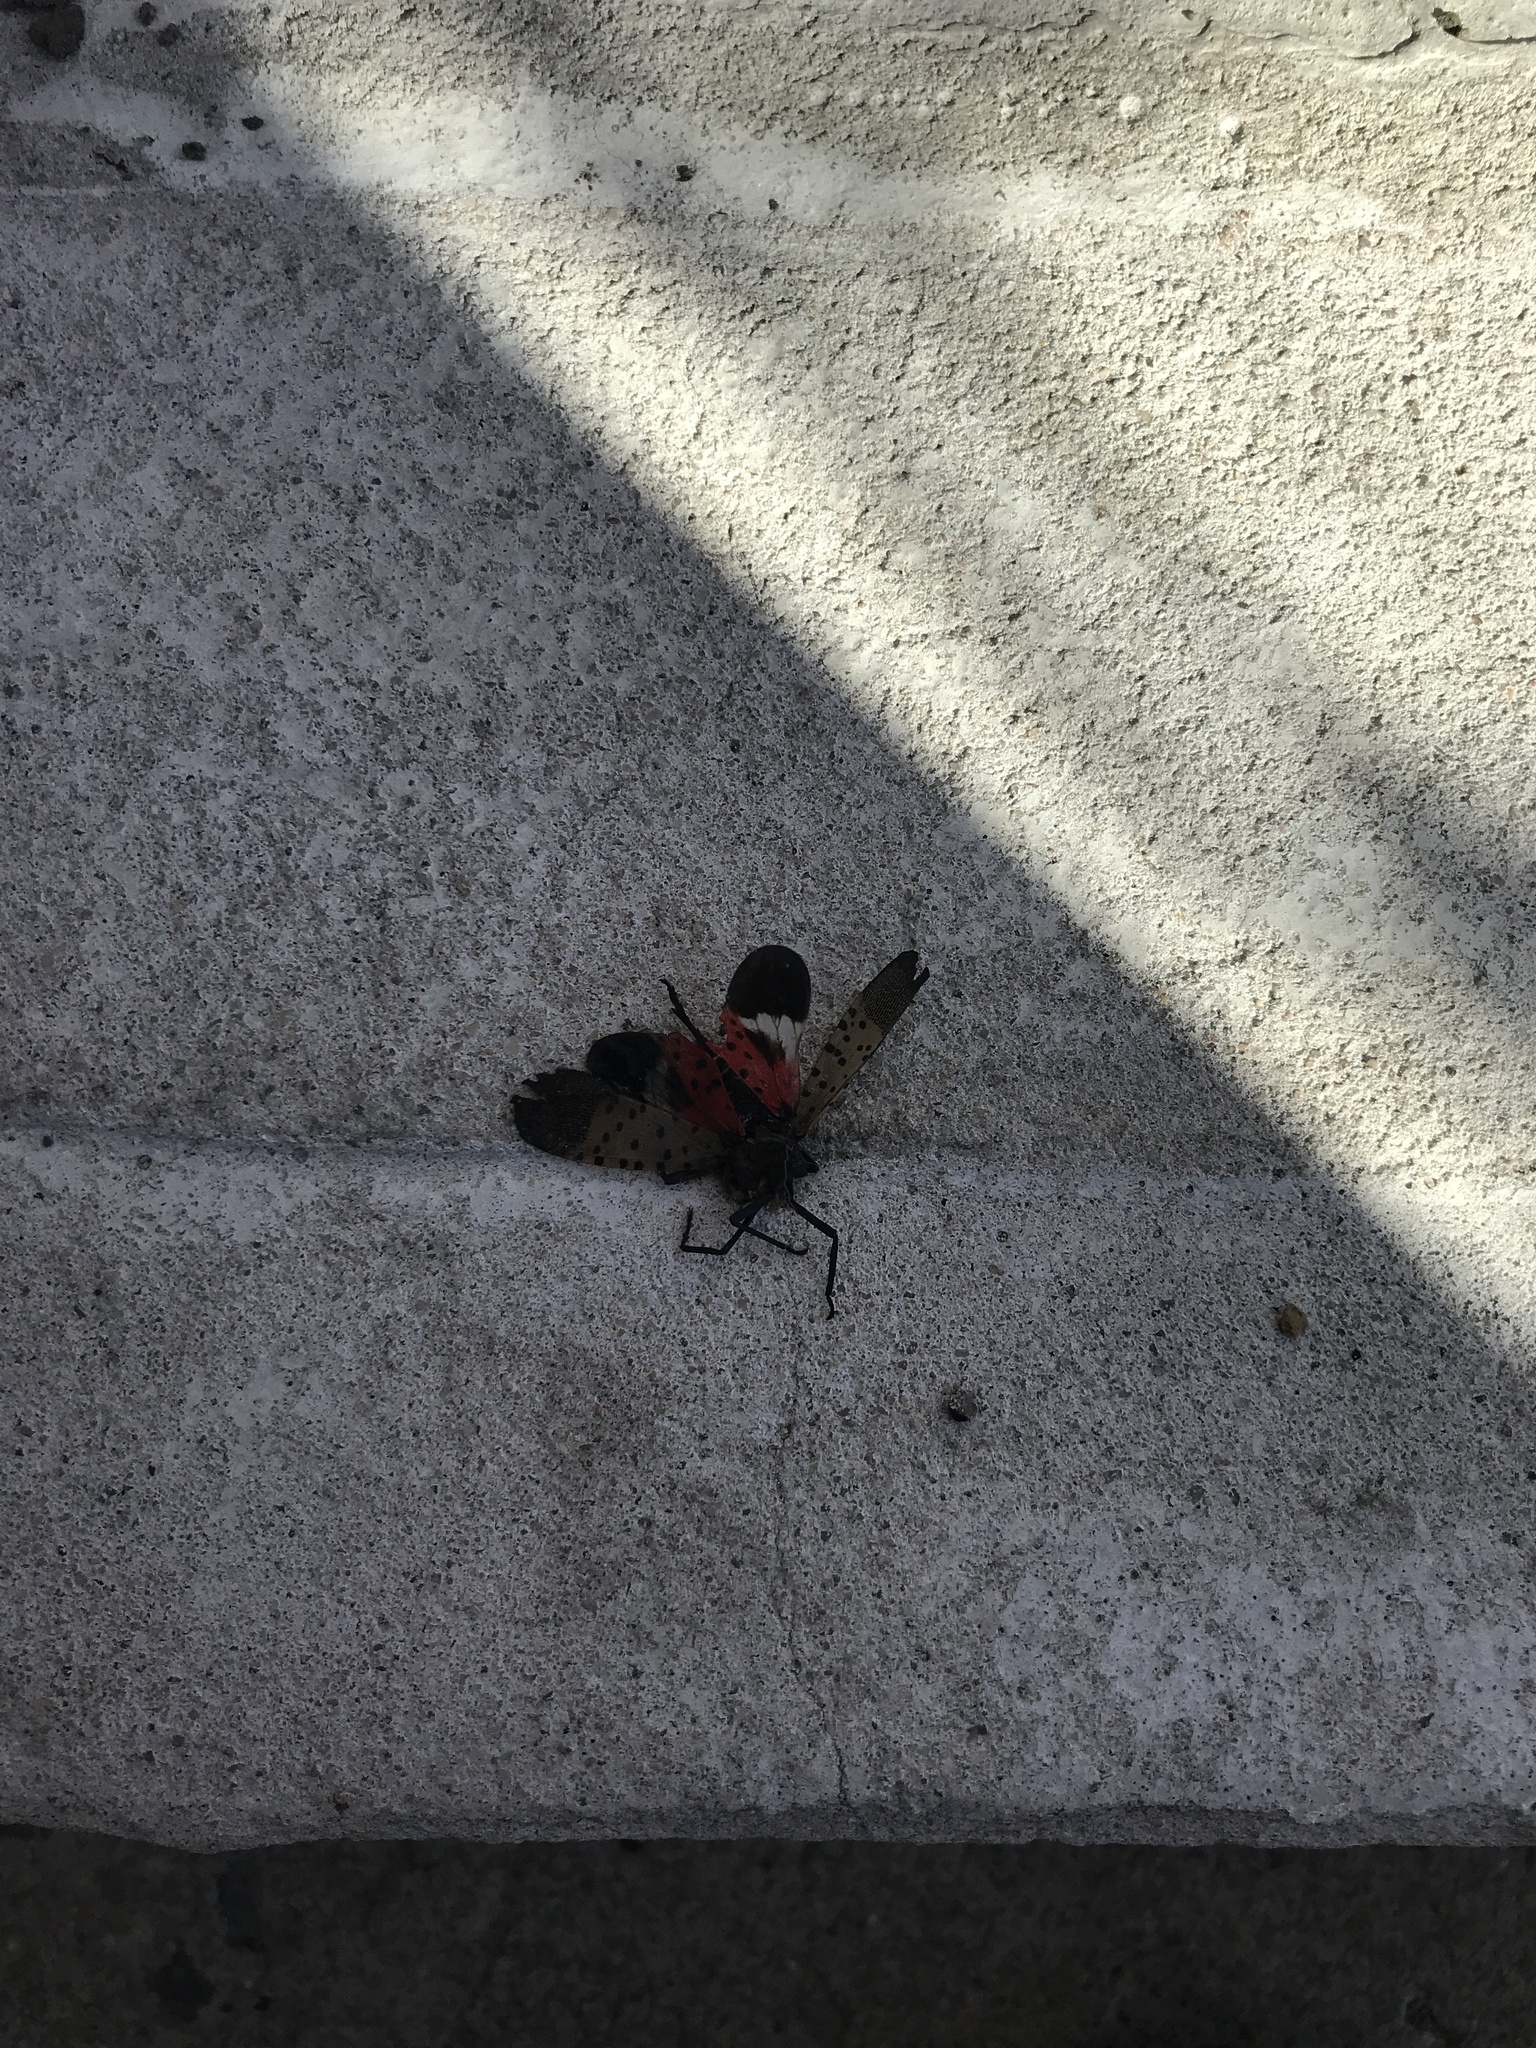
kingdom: Animalia
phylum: Arthropoda
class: Insecta
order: Hemiptera
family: Fulgoridae
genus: Lycorma
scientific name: Lycorma delicatula
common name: Spotted lanternfly
